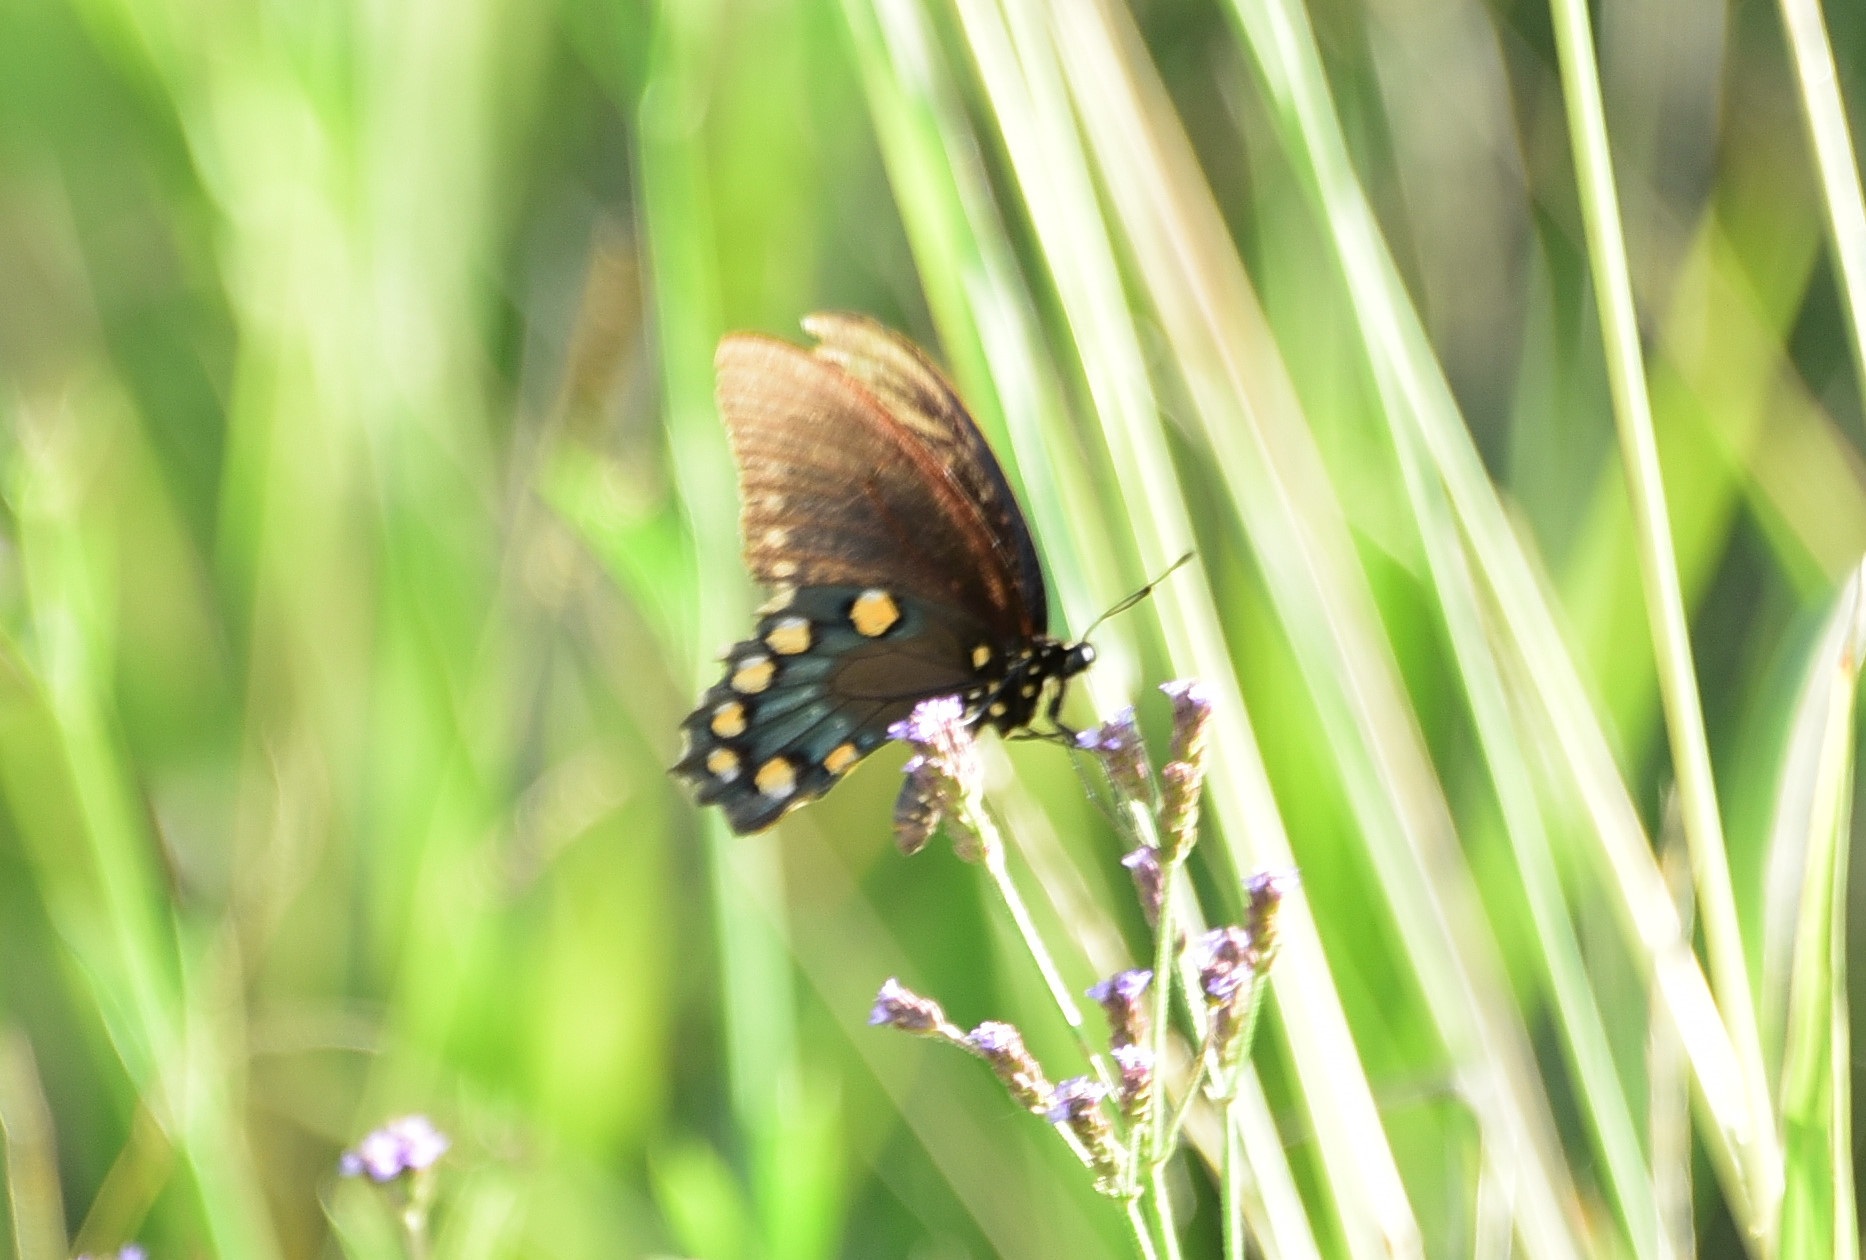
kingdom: Animalia
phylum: Arthropoda
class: Insecta
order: Lepidoptera
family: Papilionidae
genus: Battus
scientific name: Battus philenor
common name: Pipevine swallowtail
